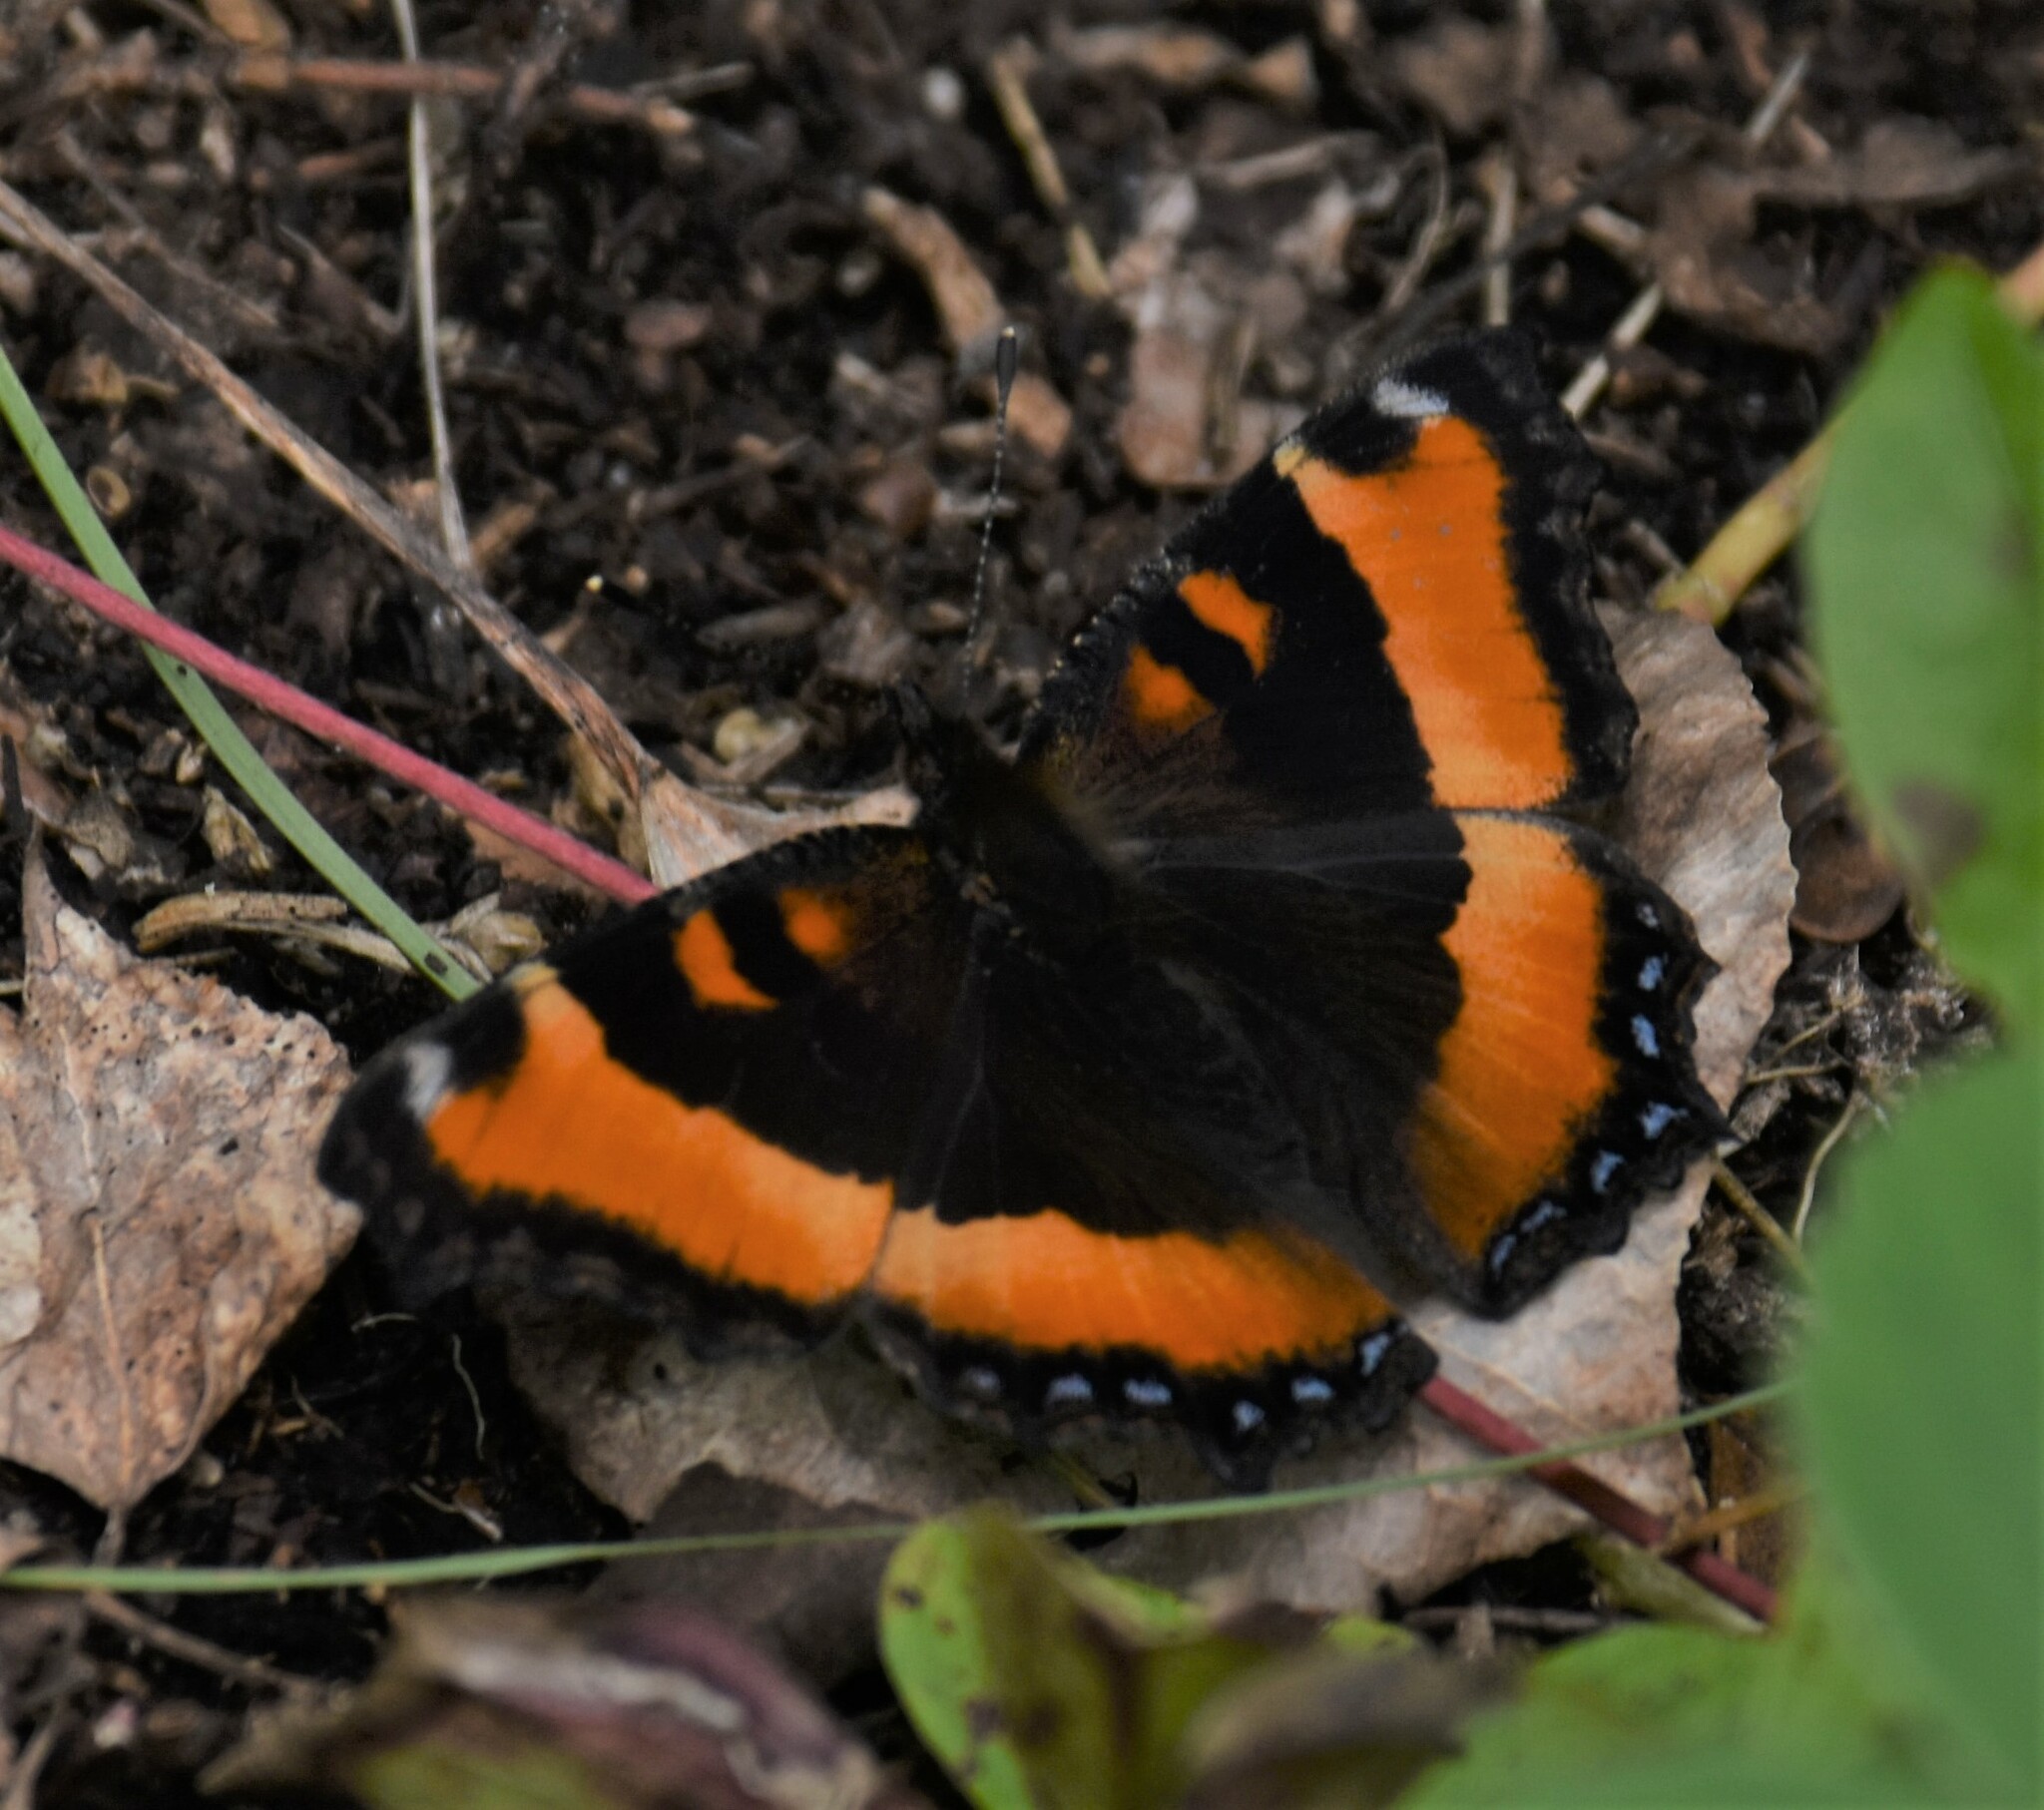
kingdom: Animalia
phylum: Arthropoda
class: Insecta
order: Lepidoptera
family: Nymphalidae
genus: Aglais
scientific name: Aglais milberti
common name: Milbert's tortoiseshell
